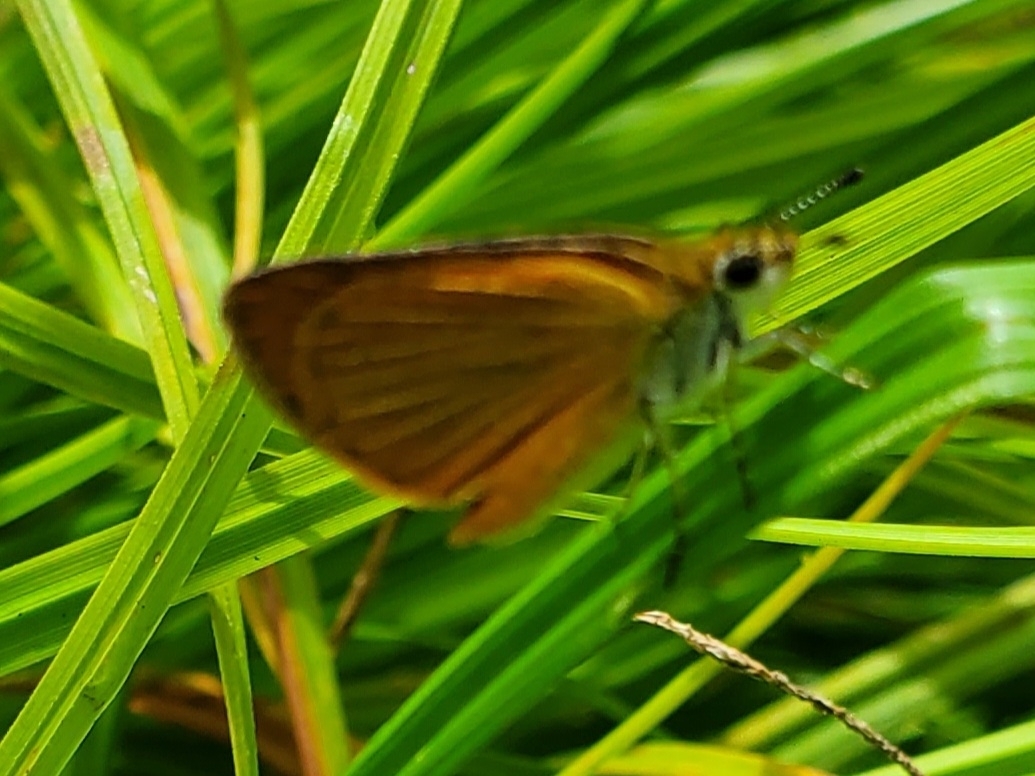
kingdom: Animalia
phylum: Arthropoda
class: Insecta
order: Lepidoptera
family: Hesperiidae
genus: Ancyloxypha
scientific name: Ancyloxypha numitor
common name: Least skipper
